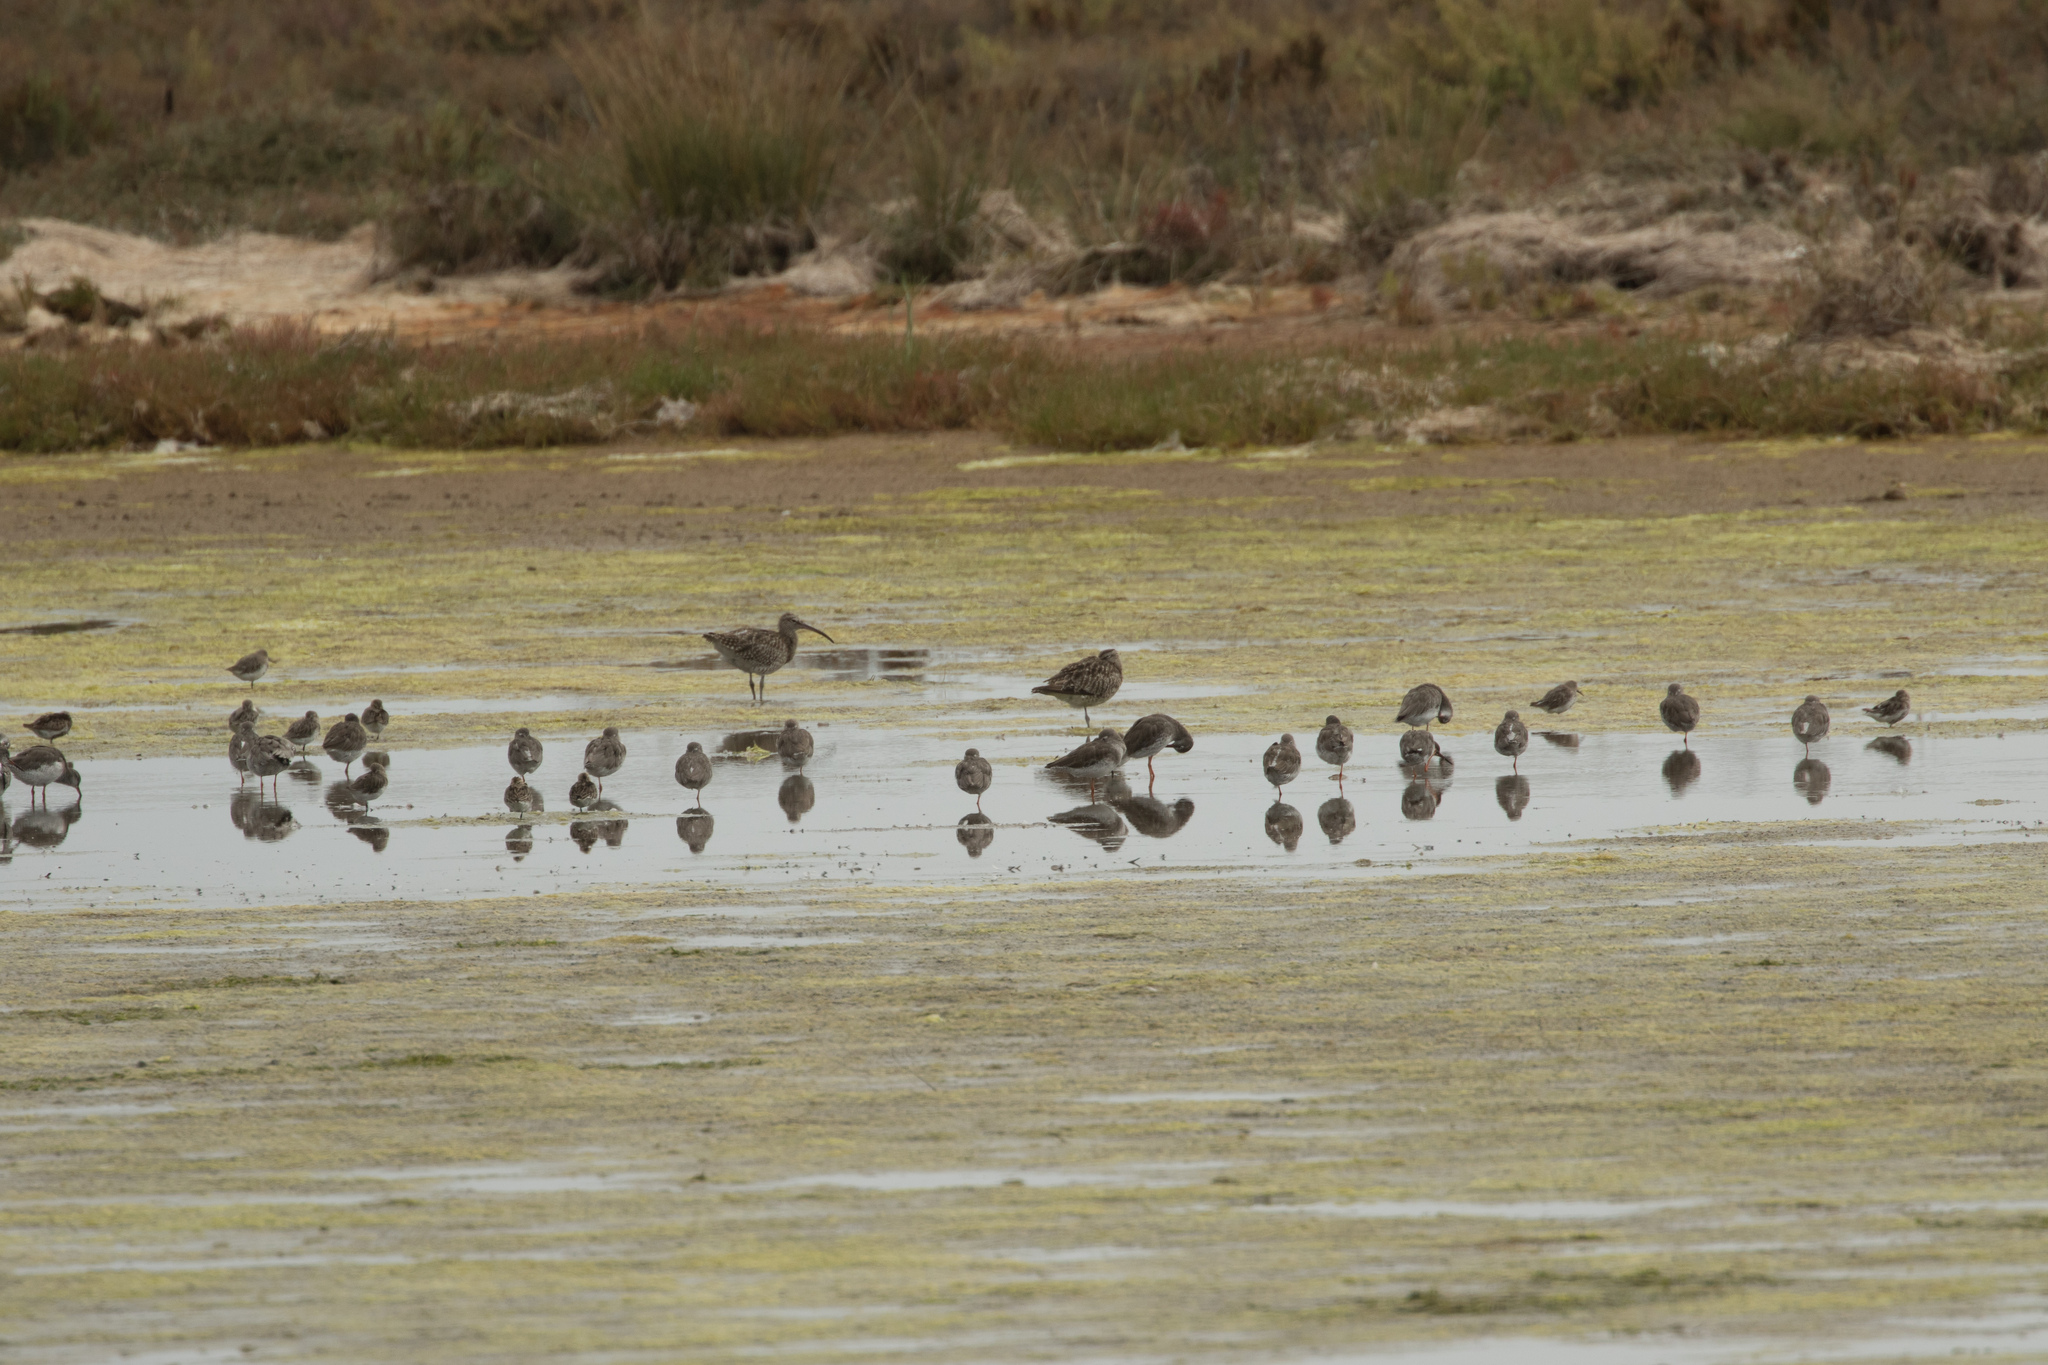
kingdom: Animalia
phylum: Chordata
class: Aves
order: Charadriiformes
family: Scolopacidae
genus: Calidris
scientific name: Calidris alpina
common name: Dunlin
